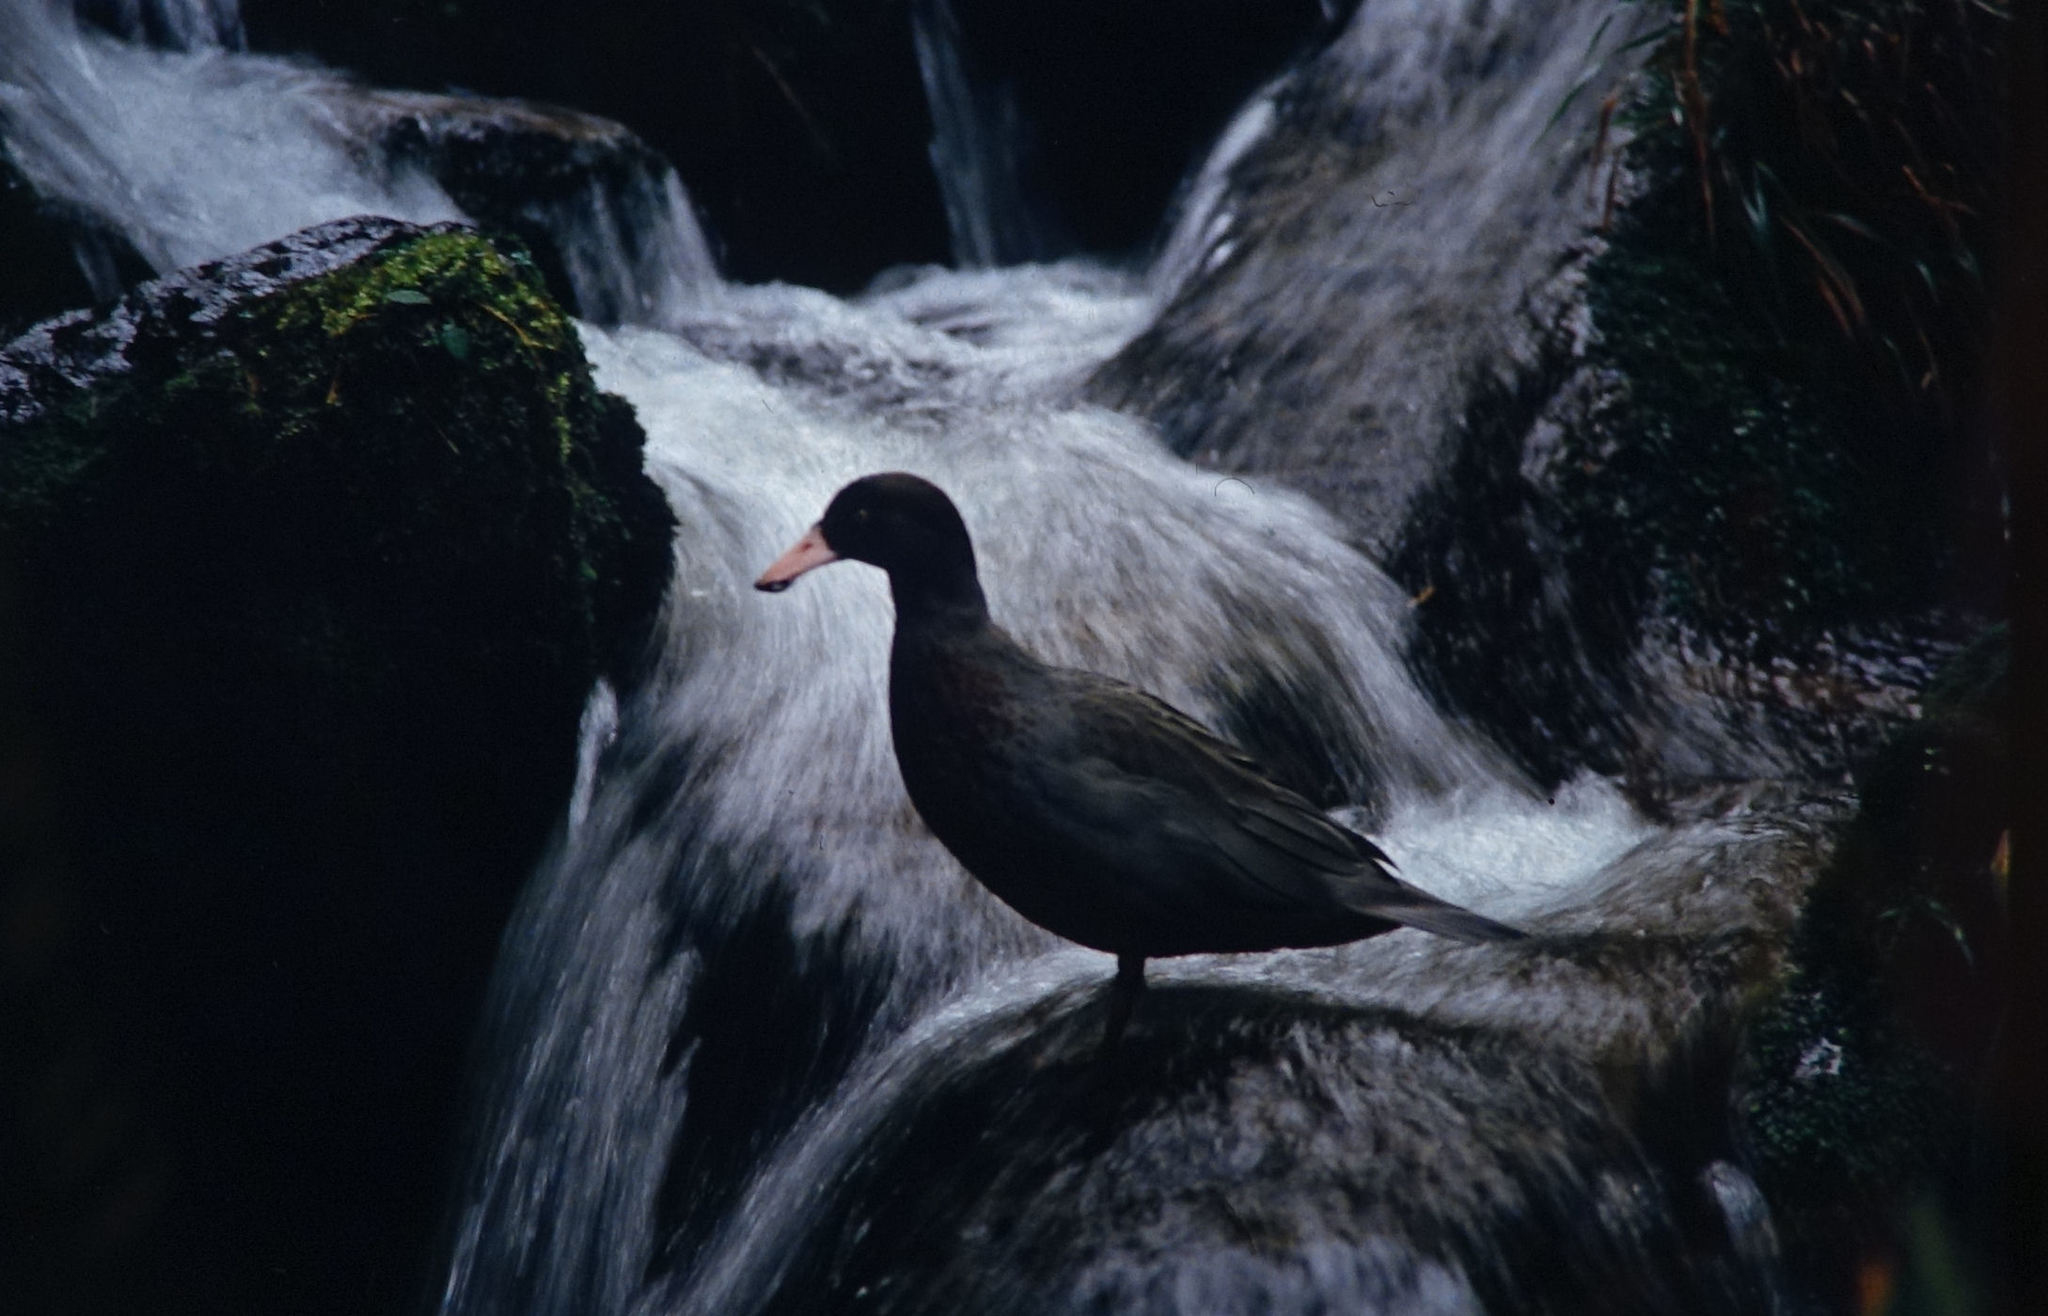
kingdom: Animalia
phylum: Chordata
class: Aves
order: Anseriformes
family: Anatidae
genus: Hymenolaimus
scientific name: Hymenolaimus malacorhynchos
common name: Blue duck
